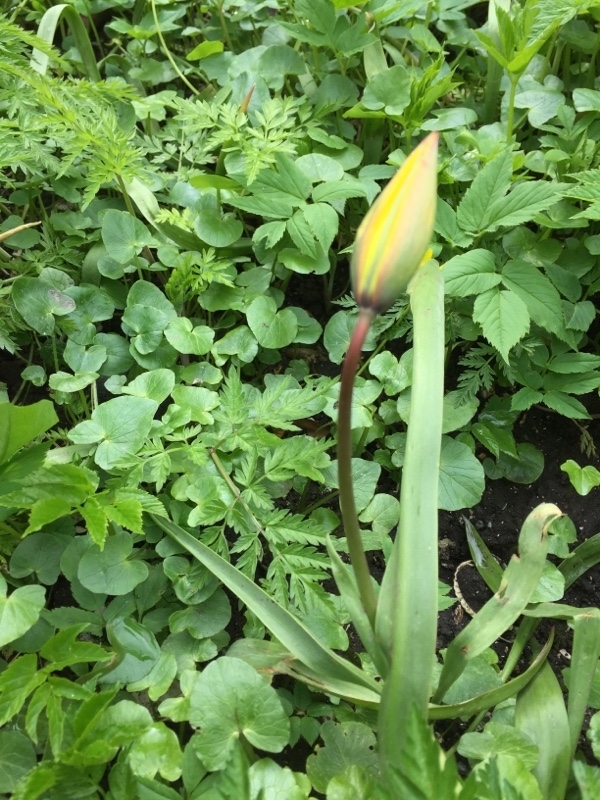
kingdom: Plantae
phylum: Tracheophyta
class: Liliopsida
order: Liliales
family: Liliaceae
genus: Tulipa
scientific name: Tulipa sylvestris
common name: Wild tulip
